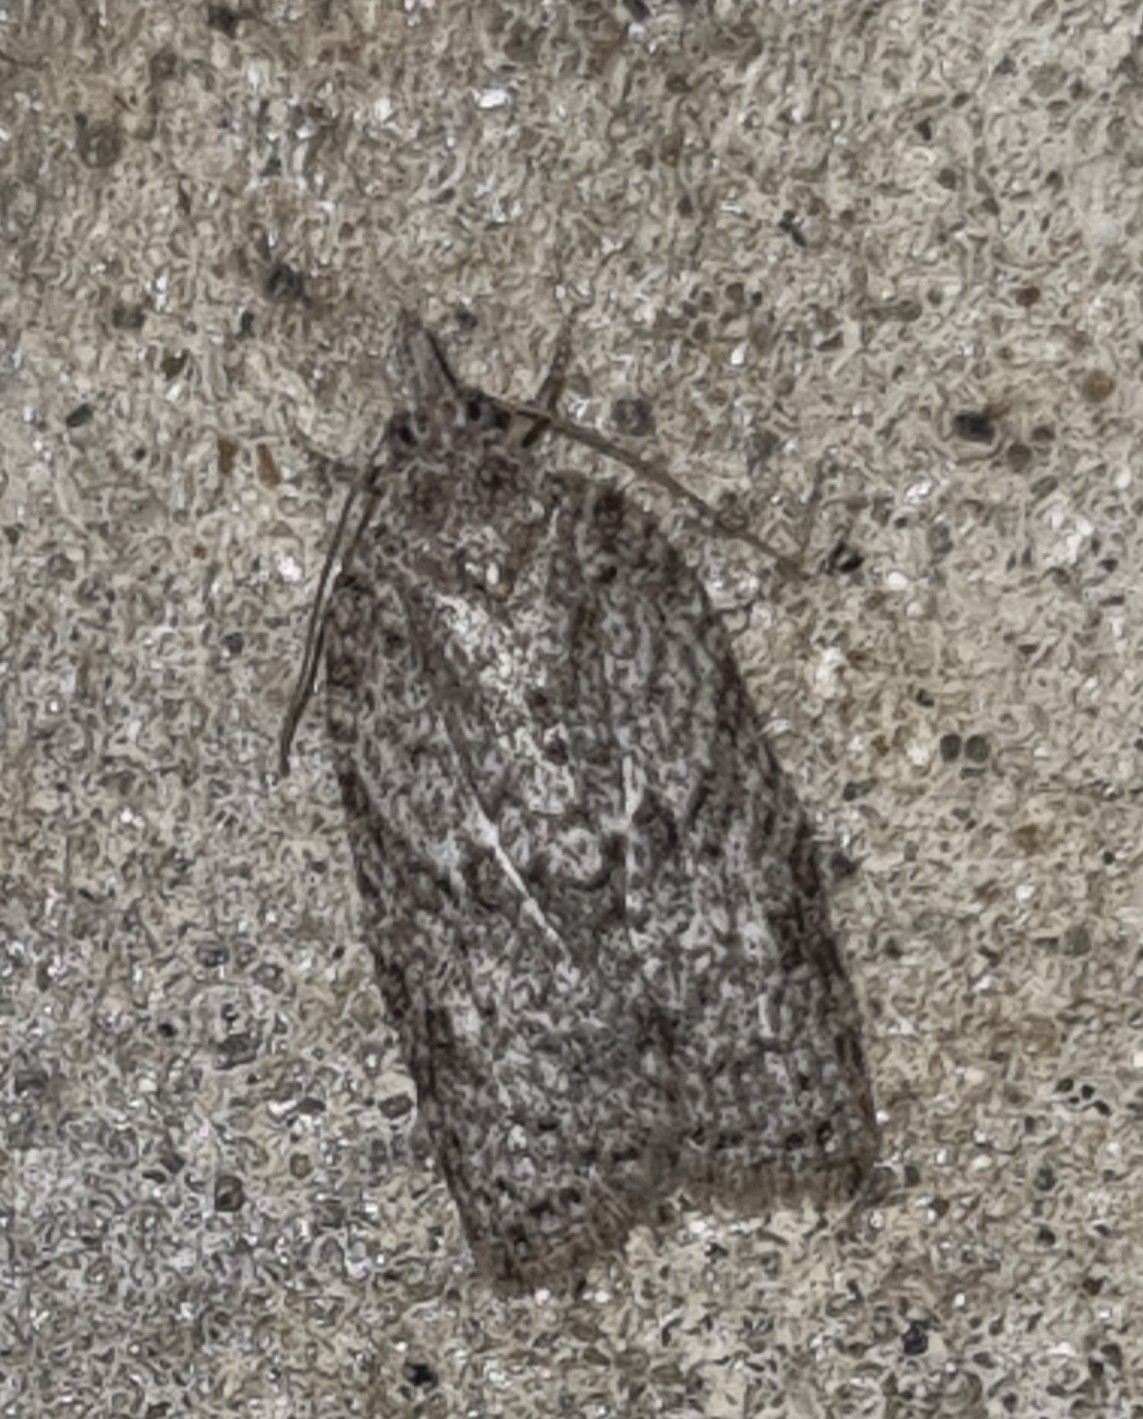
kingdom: Animalia
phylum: Arthropoda
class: Insecta
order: Lepidoptera
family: Tortricidae
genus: Isotenes
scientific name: Isotenes miserana
